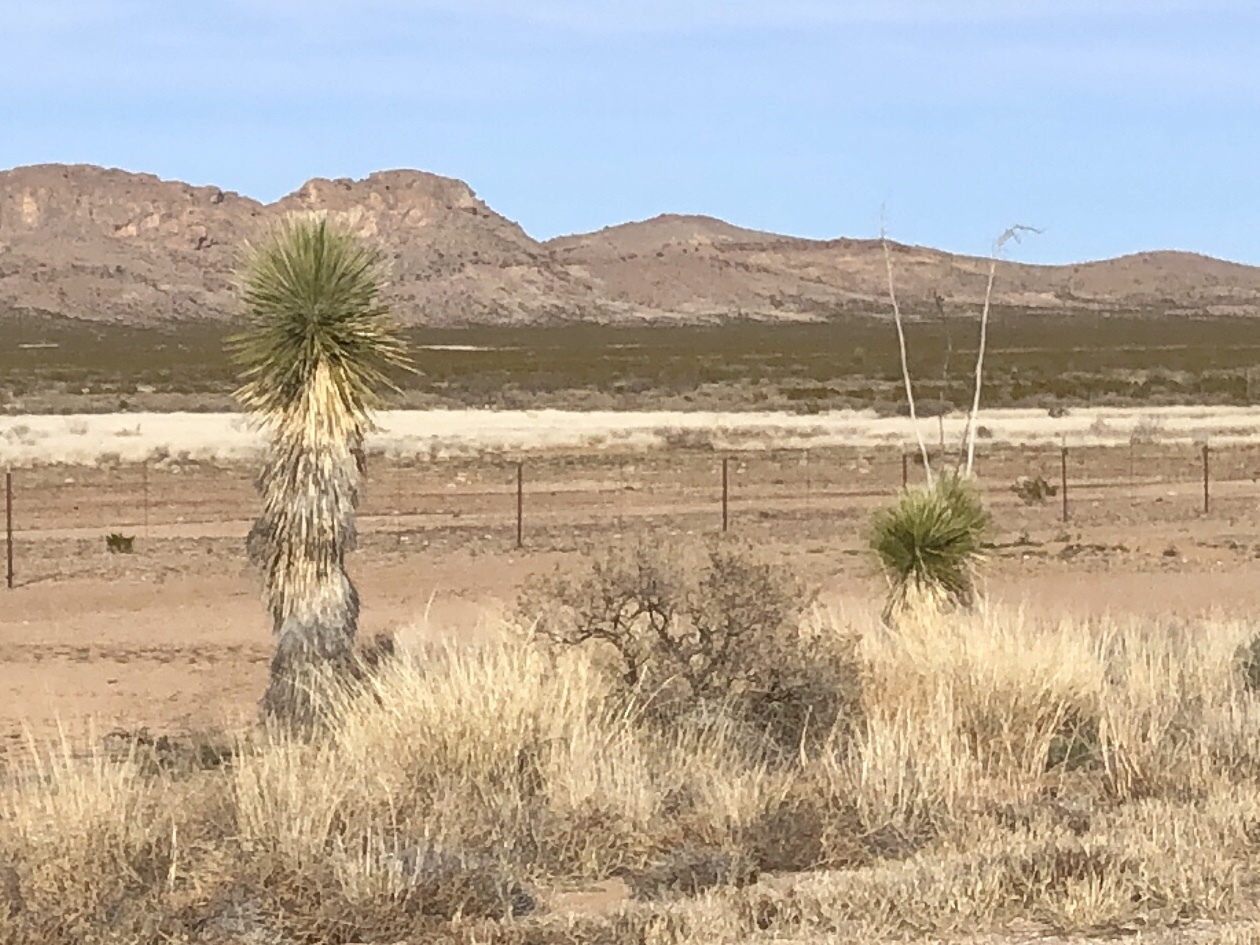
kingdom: Plantae
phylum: Tracheophyta
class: Liliopsida
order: Asparagales
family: Asparagaceae
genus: Yucca
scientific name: Yucca elata
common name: Palmella
